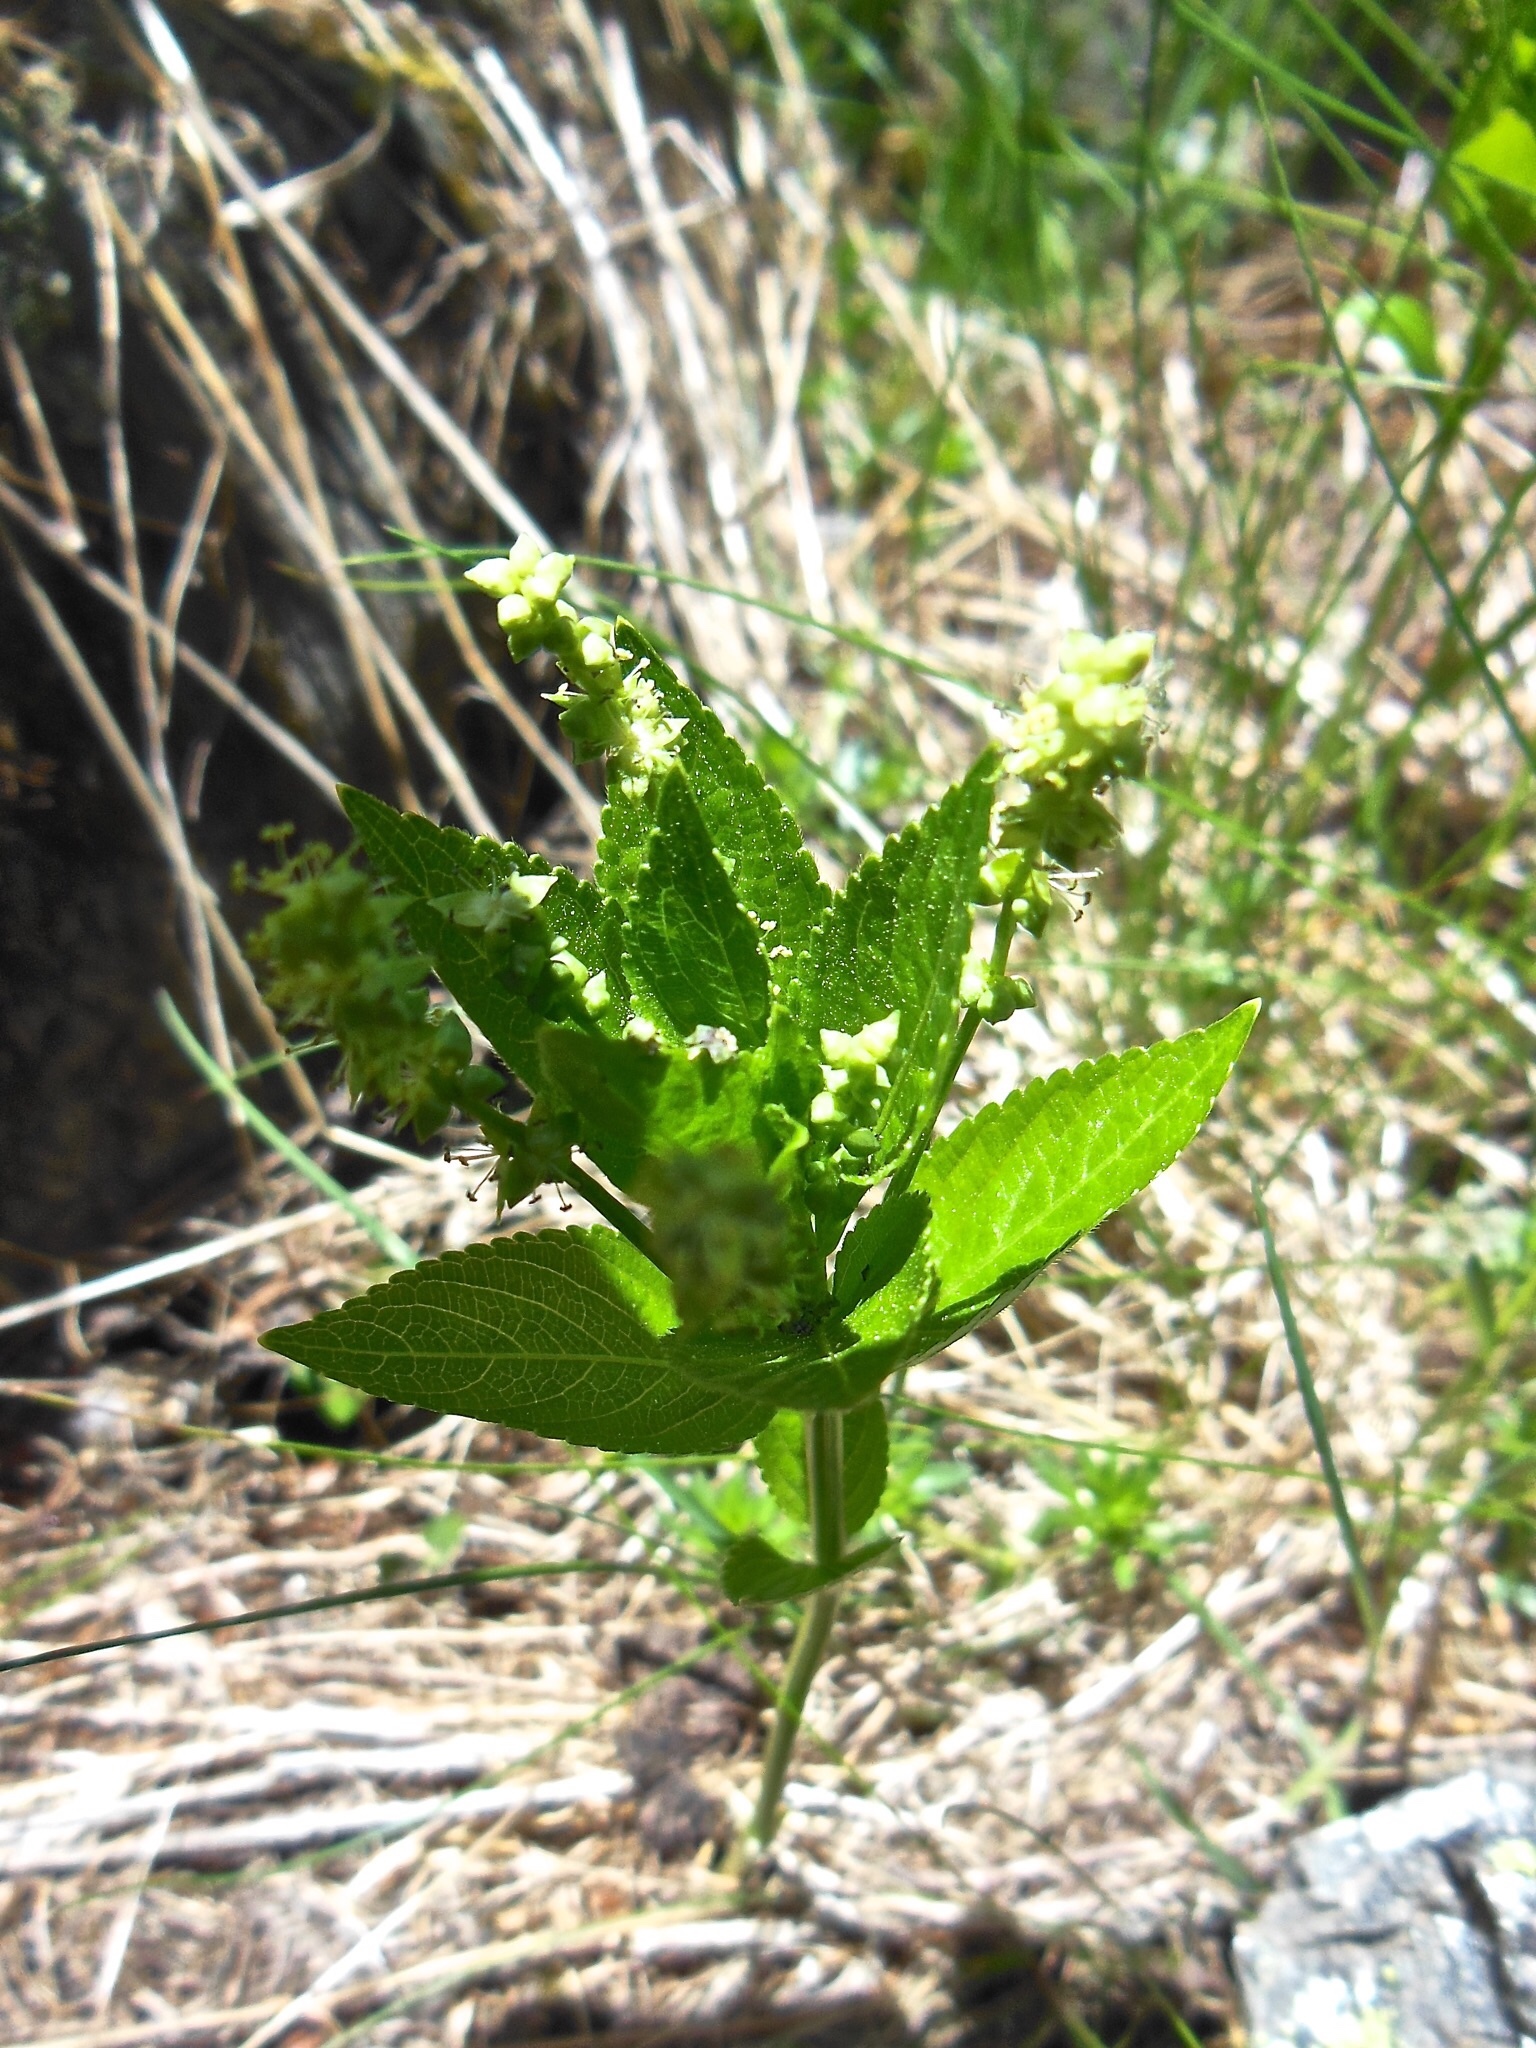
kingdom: Plantae
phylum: Tracheophyta
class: Magnoliopsida
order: Malpighiales
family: Euphorbiaceae
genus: Mercurialis
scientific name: Mercurialis ovata
